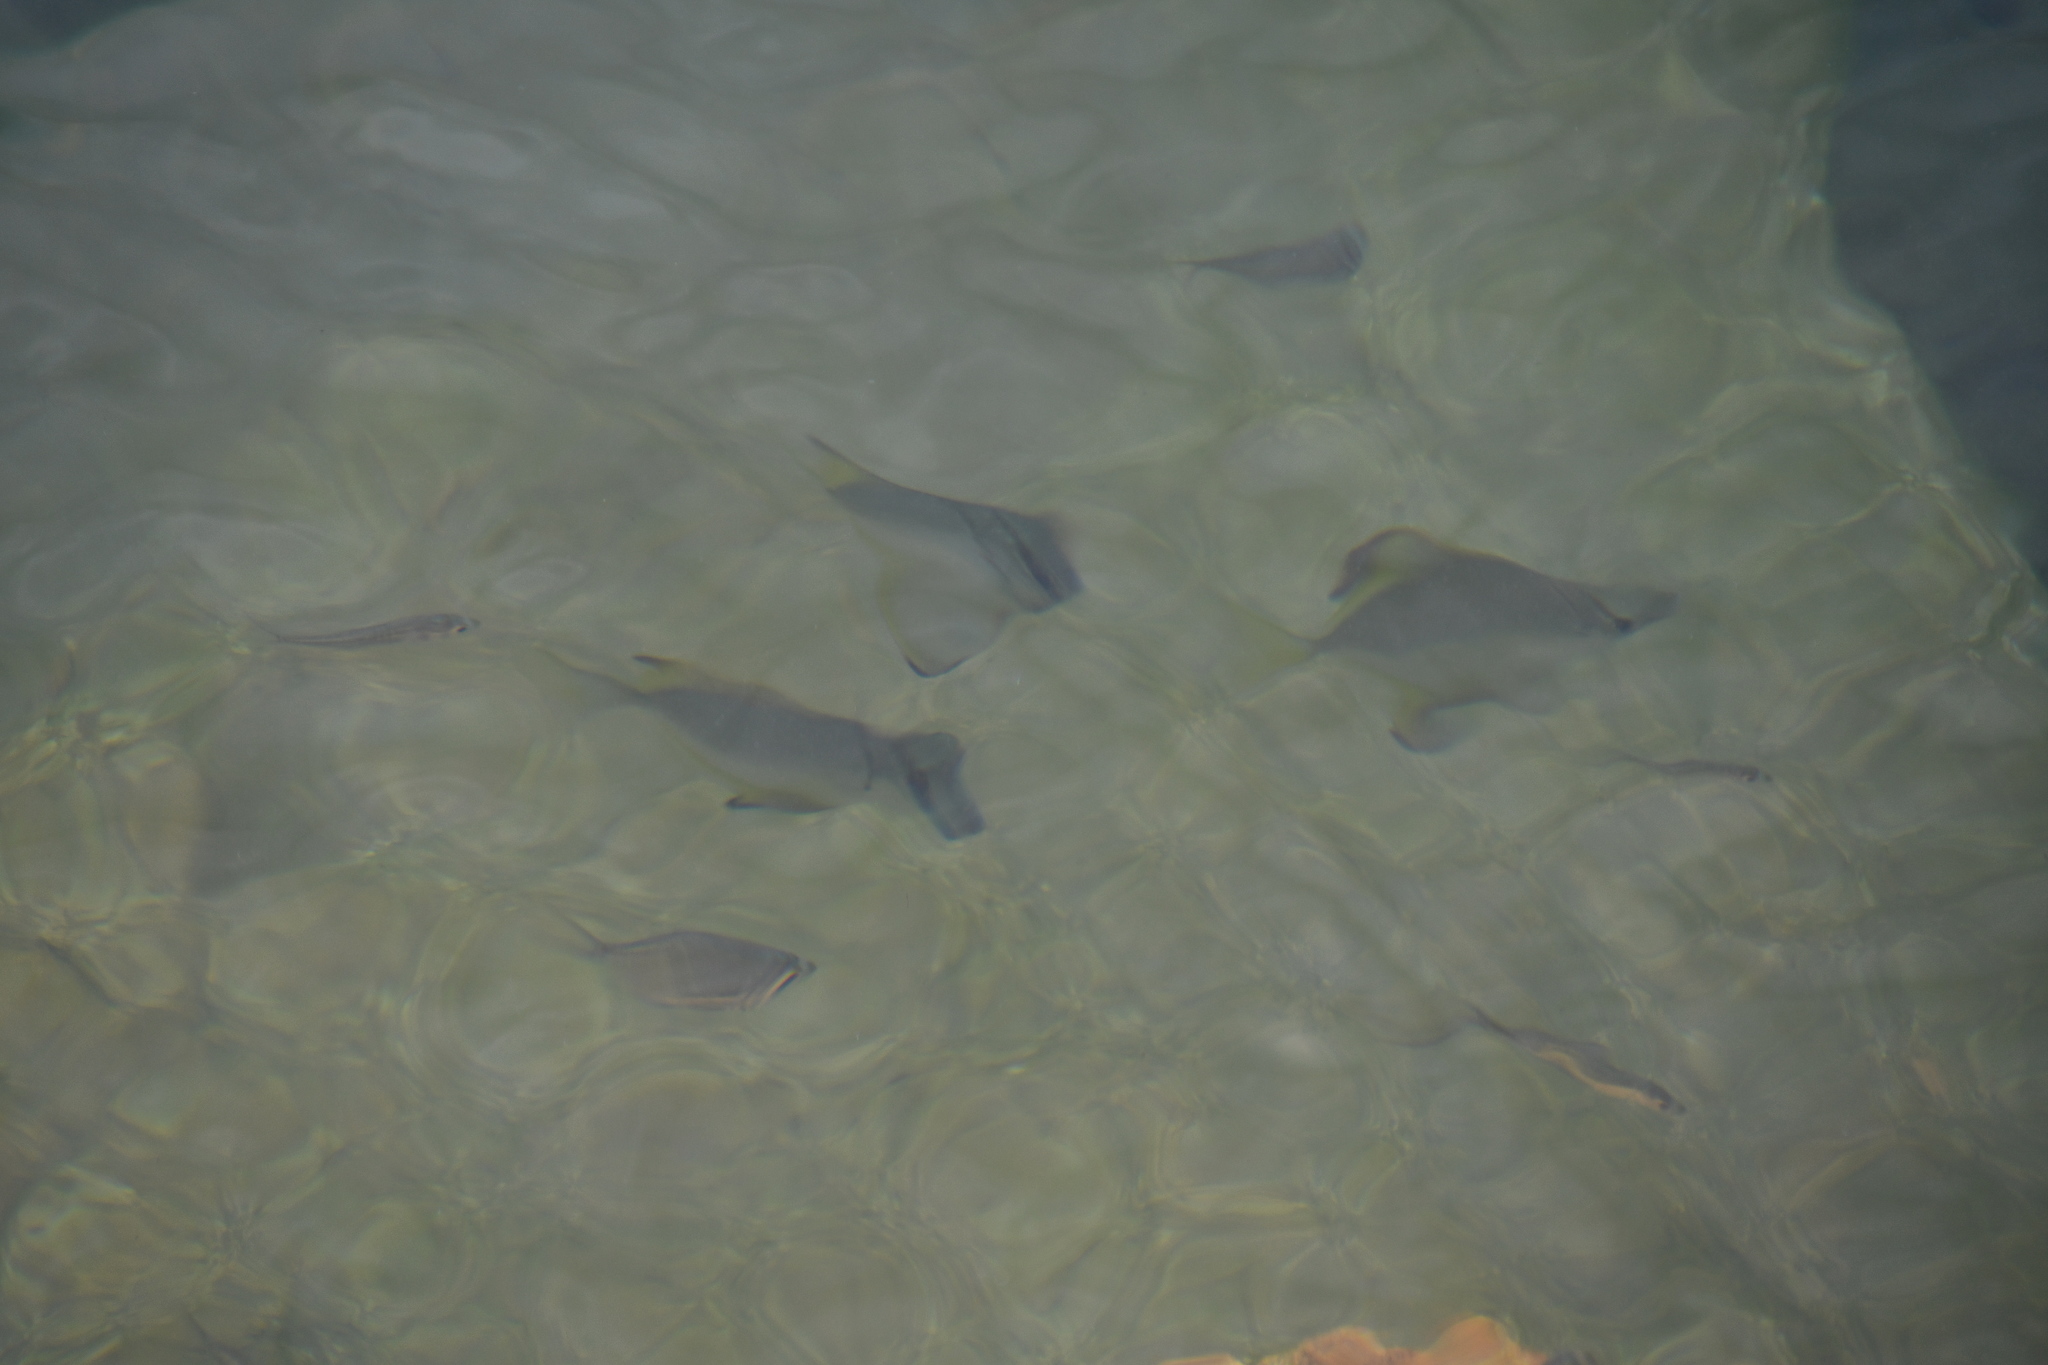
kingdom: Animalia
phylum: Chordata
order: Perciformes
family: Monodactylidae
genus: Monodactylus
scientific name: Monodactylus argenteus
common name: Silver moony
